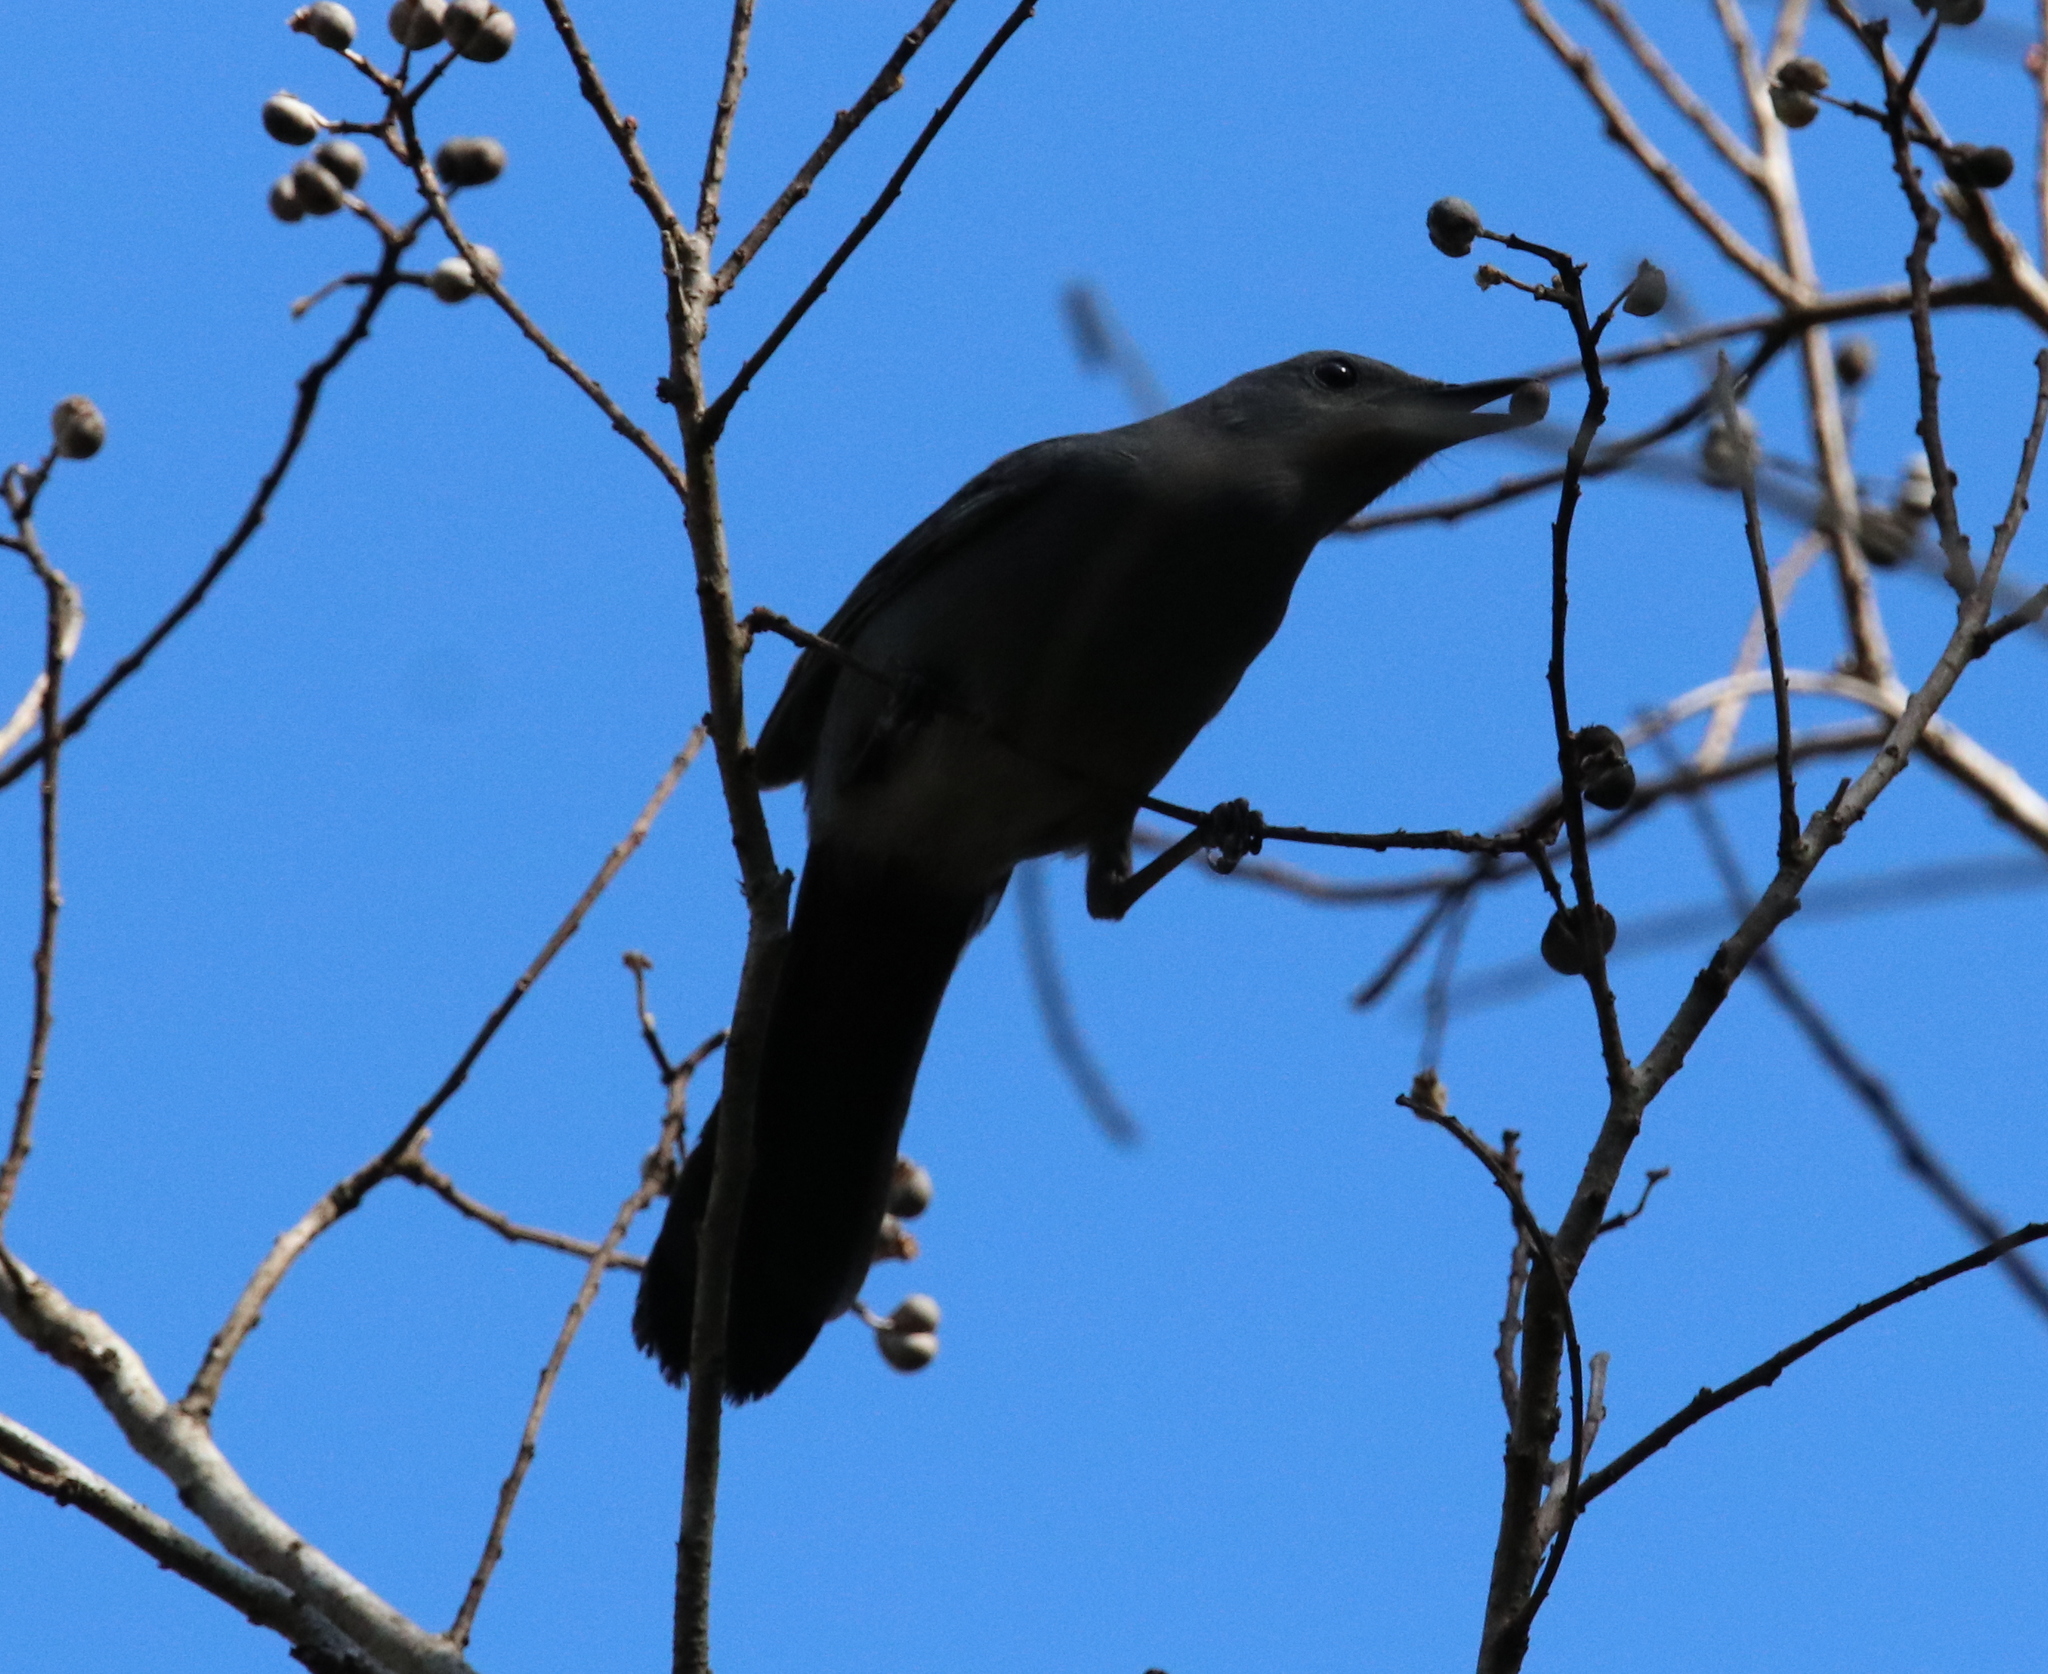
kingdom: Animalia
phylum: Chordata
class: Aves
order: Passeriformes
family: Mimidae
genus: Dumetella
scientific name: Dumetella carolinensis
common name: Gray catbird
